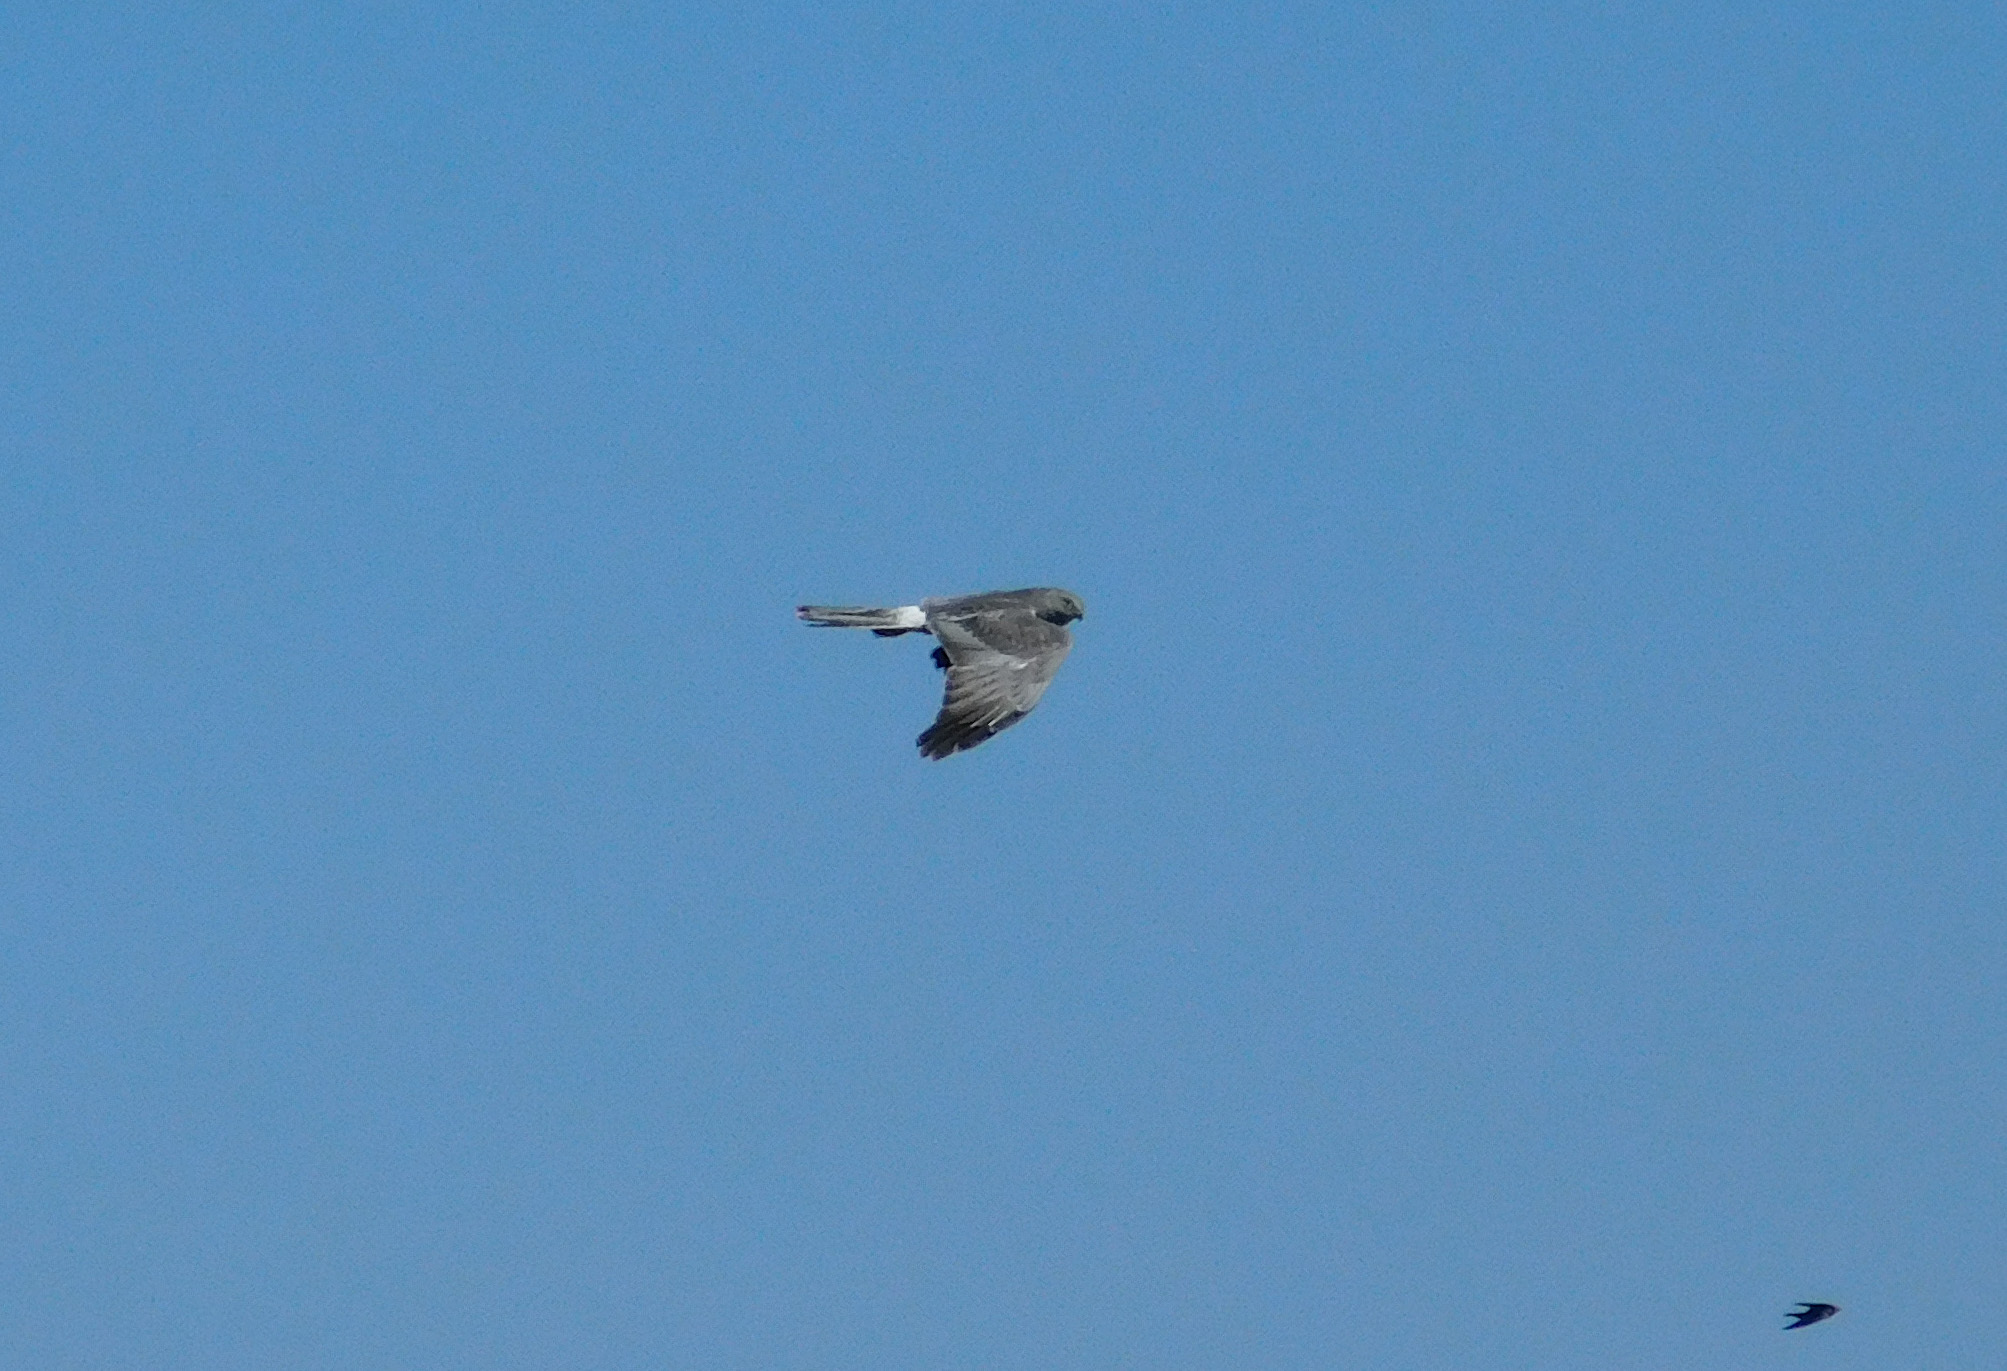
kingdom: Animalia
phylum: Chordata
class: Aves
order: Accipitriformes
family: Accipitridae
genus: Circus
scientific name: Circus cinereus
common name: Cinereous harrier
